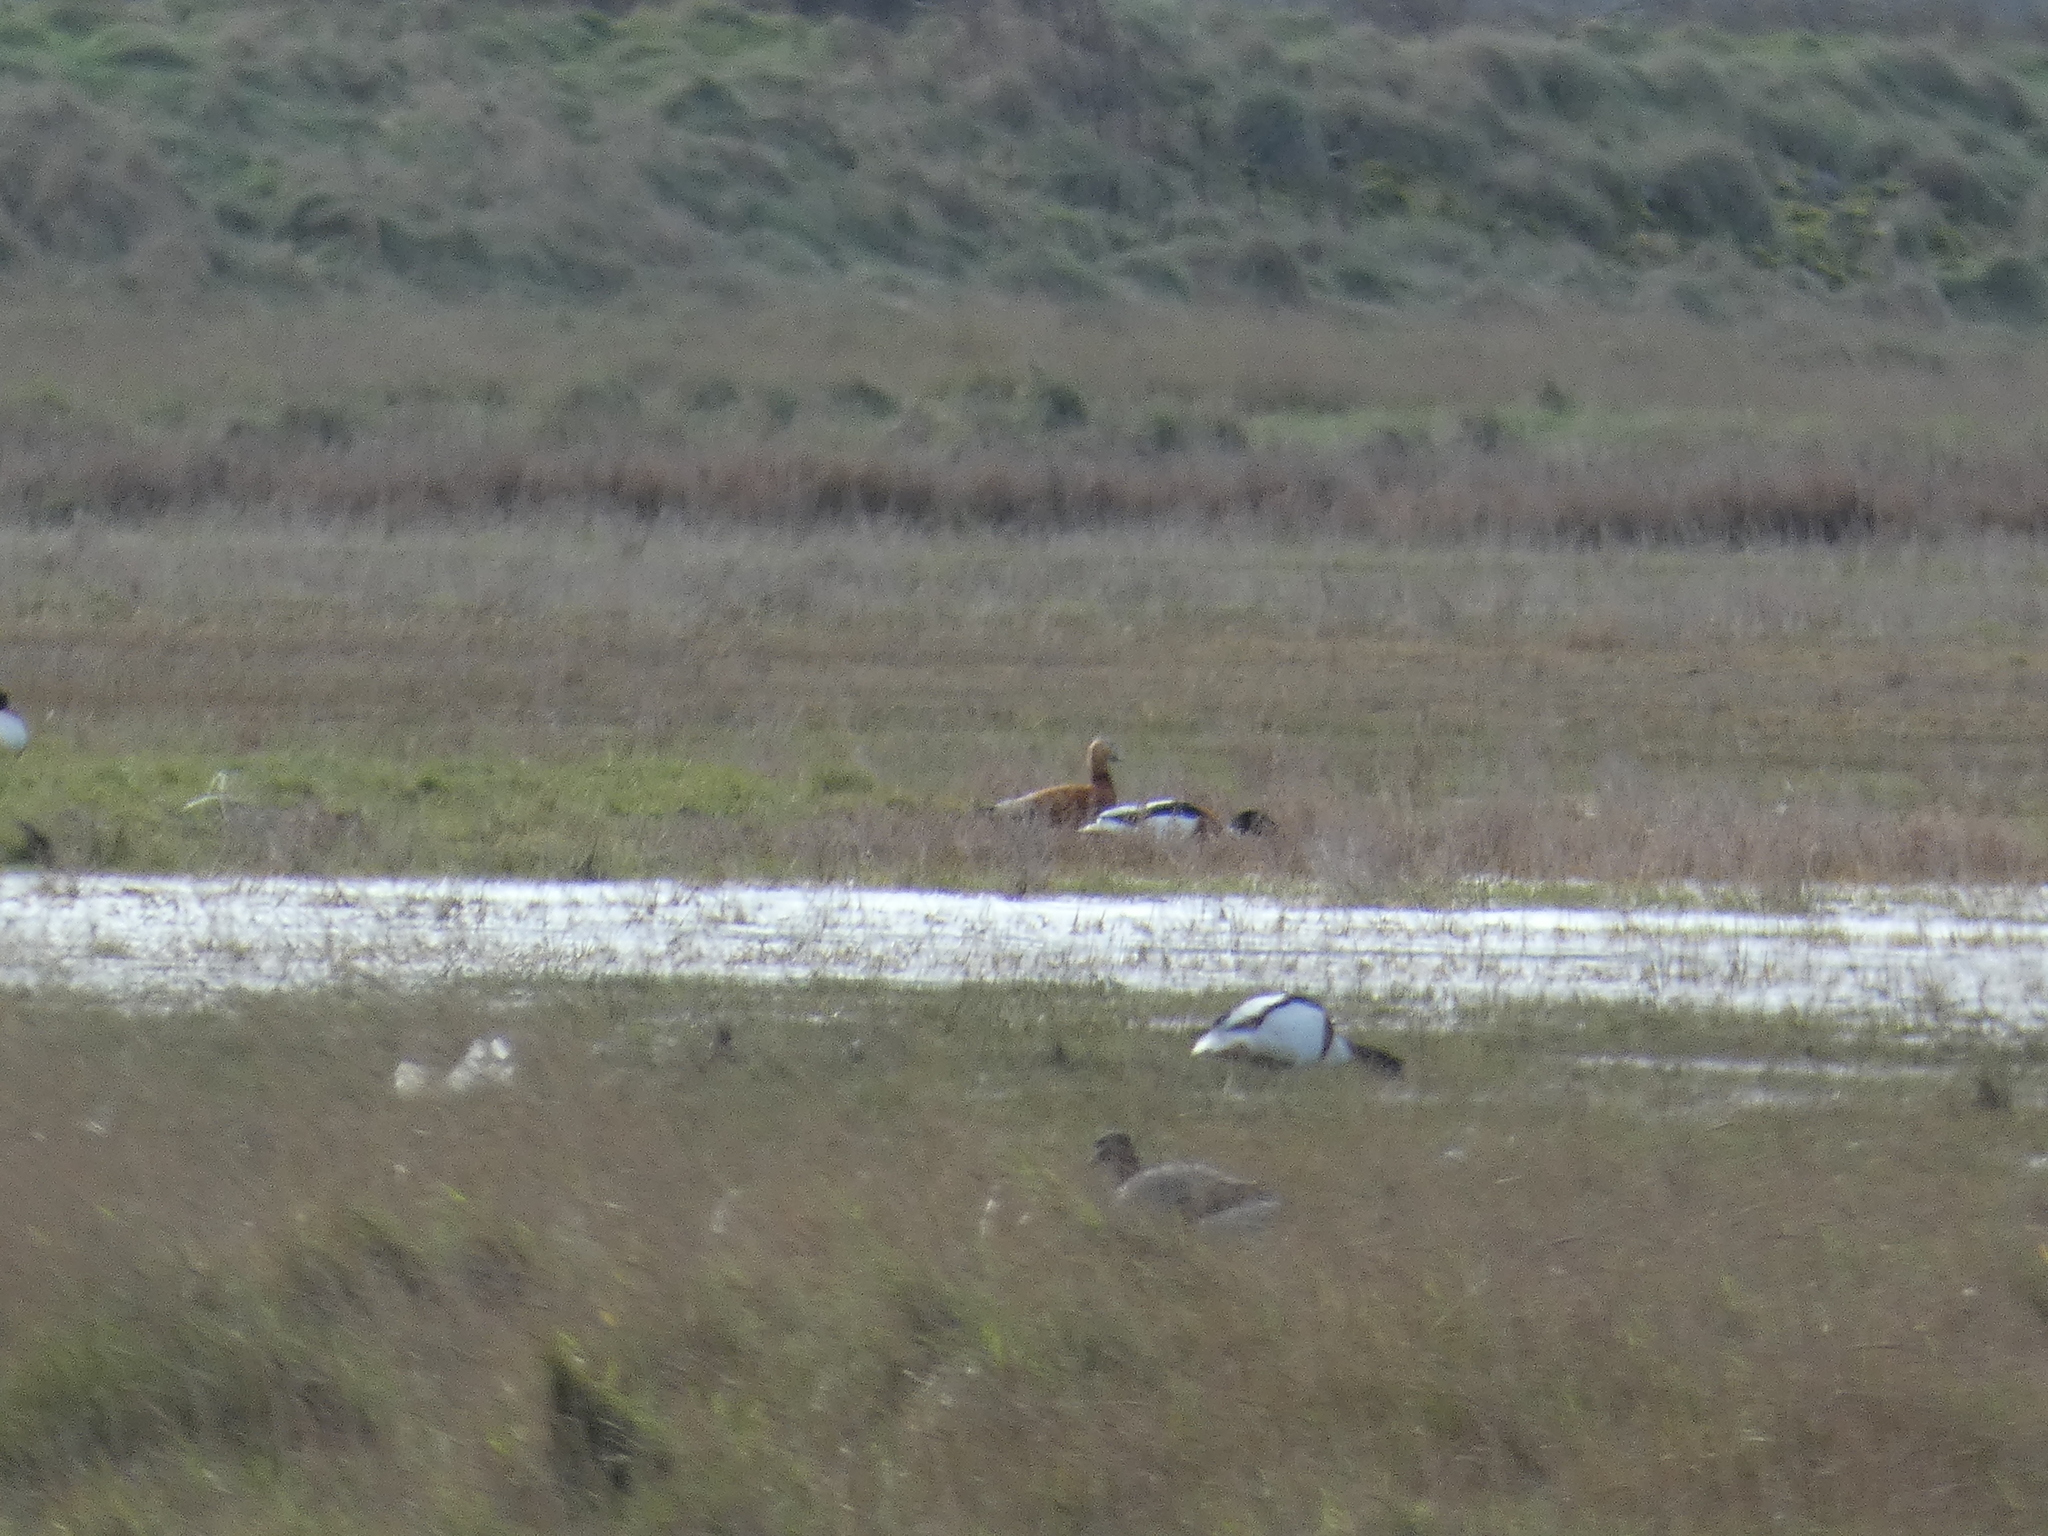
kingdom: Animalia
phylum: Chordata
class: Aves
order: Anseriformes
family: Anatidae
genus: Tadorna
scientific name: Tadorna ferruginea
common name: Ruddy shelduck
